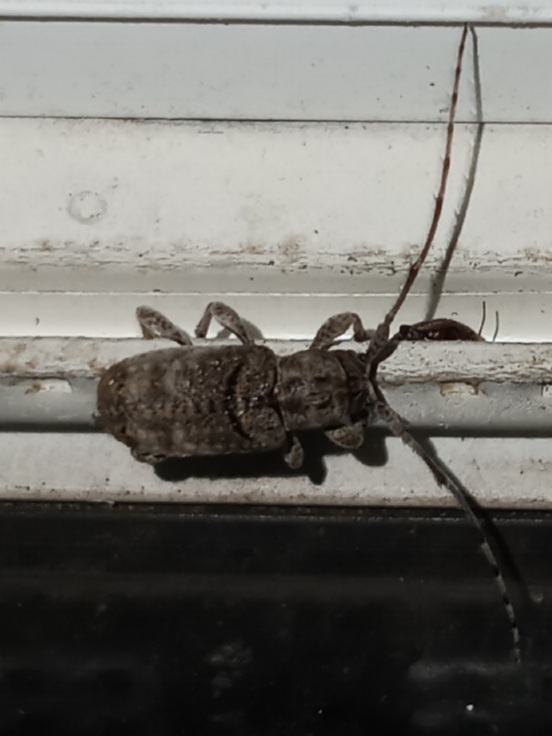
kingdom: Animalia
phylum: Arthropoda
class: Insecta
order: Coleoptera
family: Cerambycidae
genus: Ecyrus
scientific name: Ecyrus dasycerus
